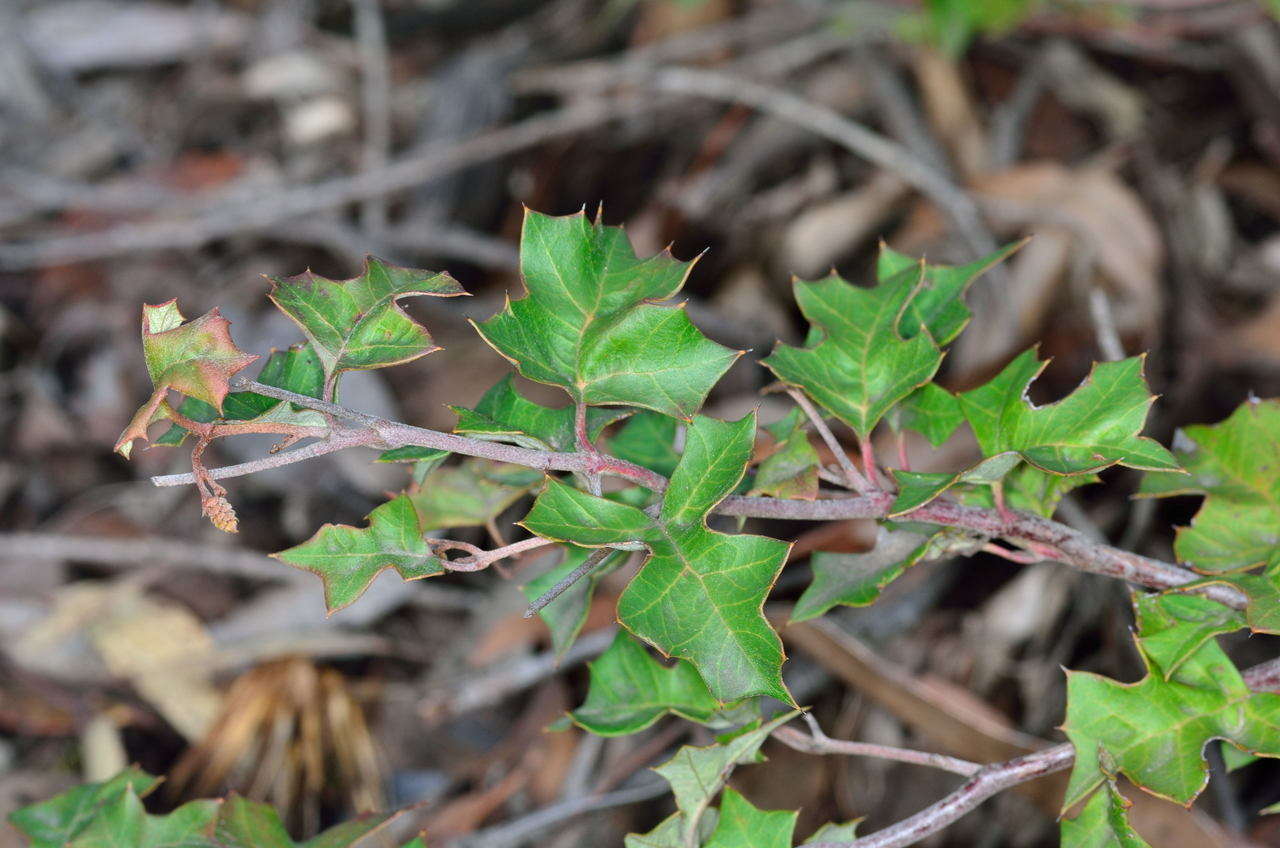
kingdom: Plantae
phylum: Tracheophyta
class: Magnoliopsida
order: Proteales
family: Proteaceae
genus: Grevillea
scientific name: Grevillea steiglitziana
